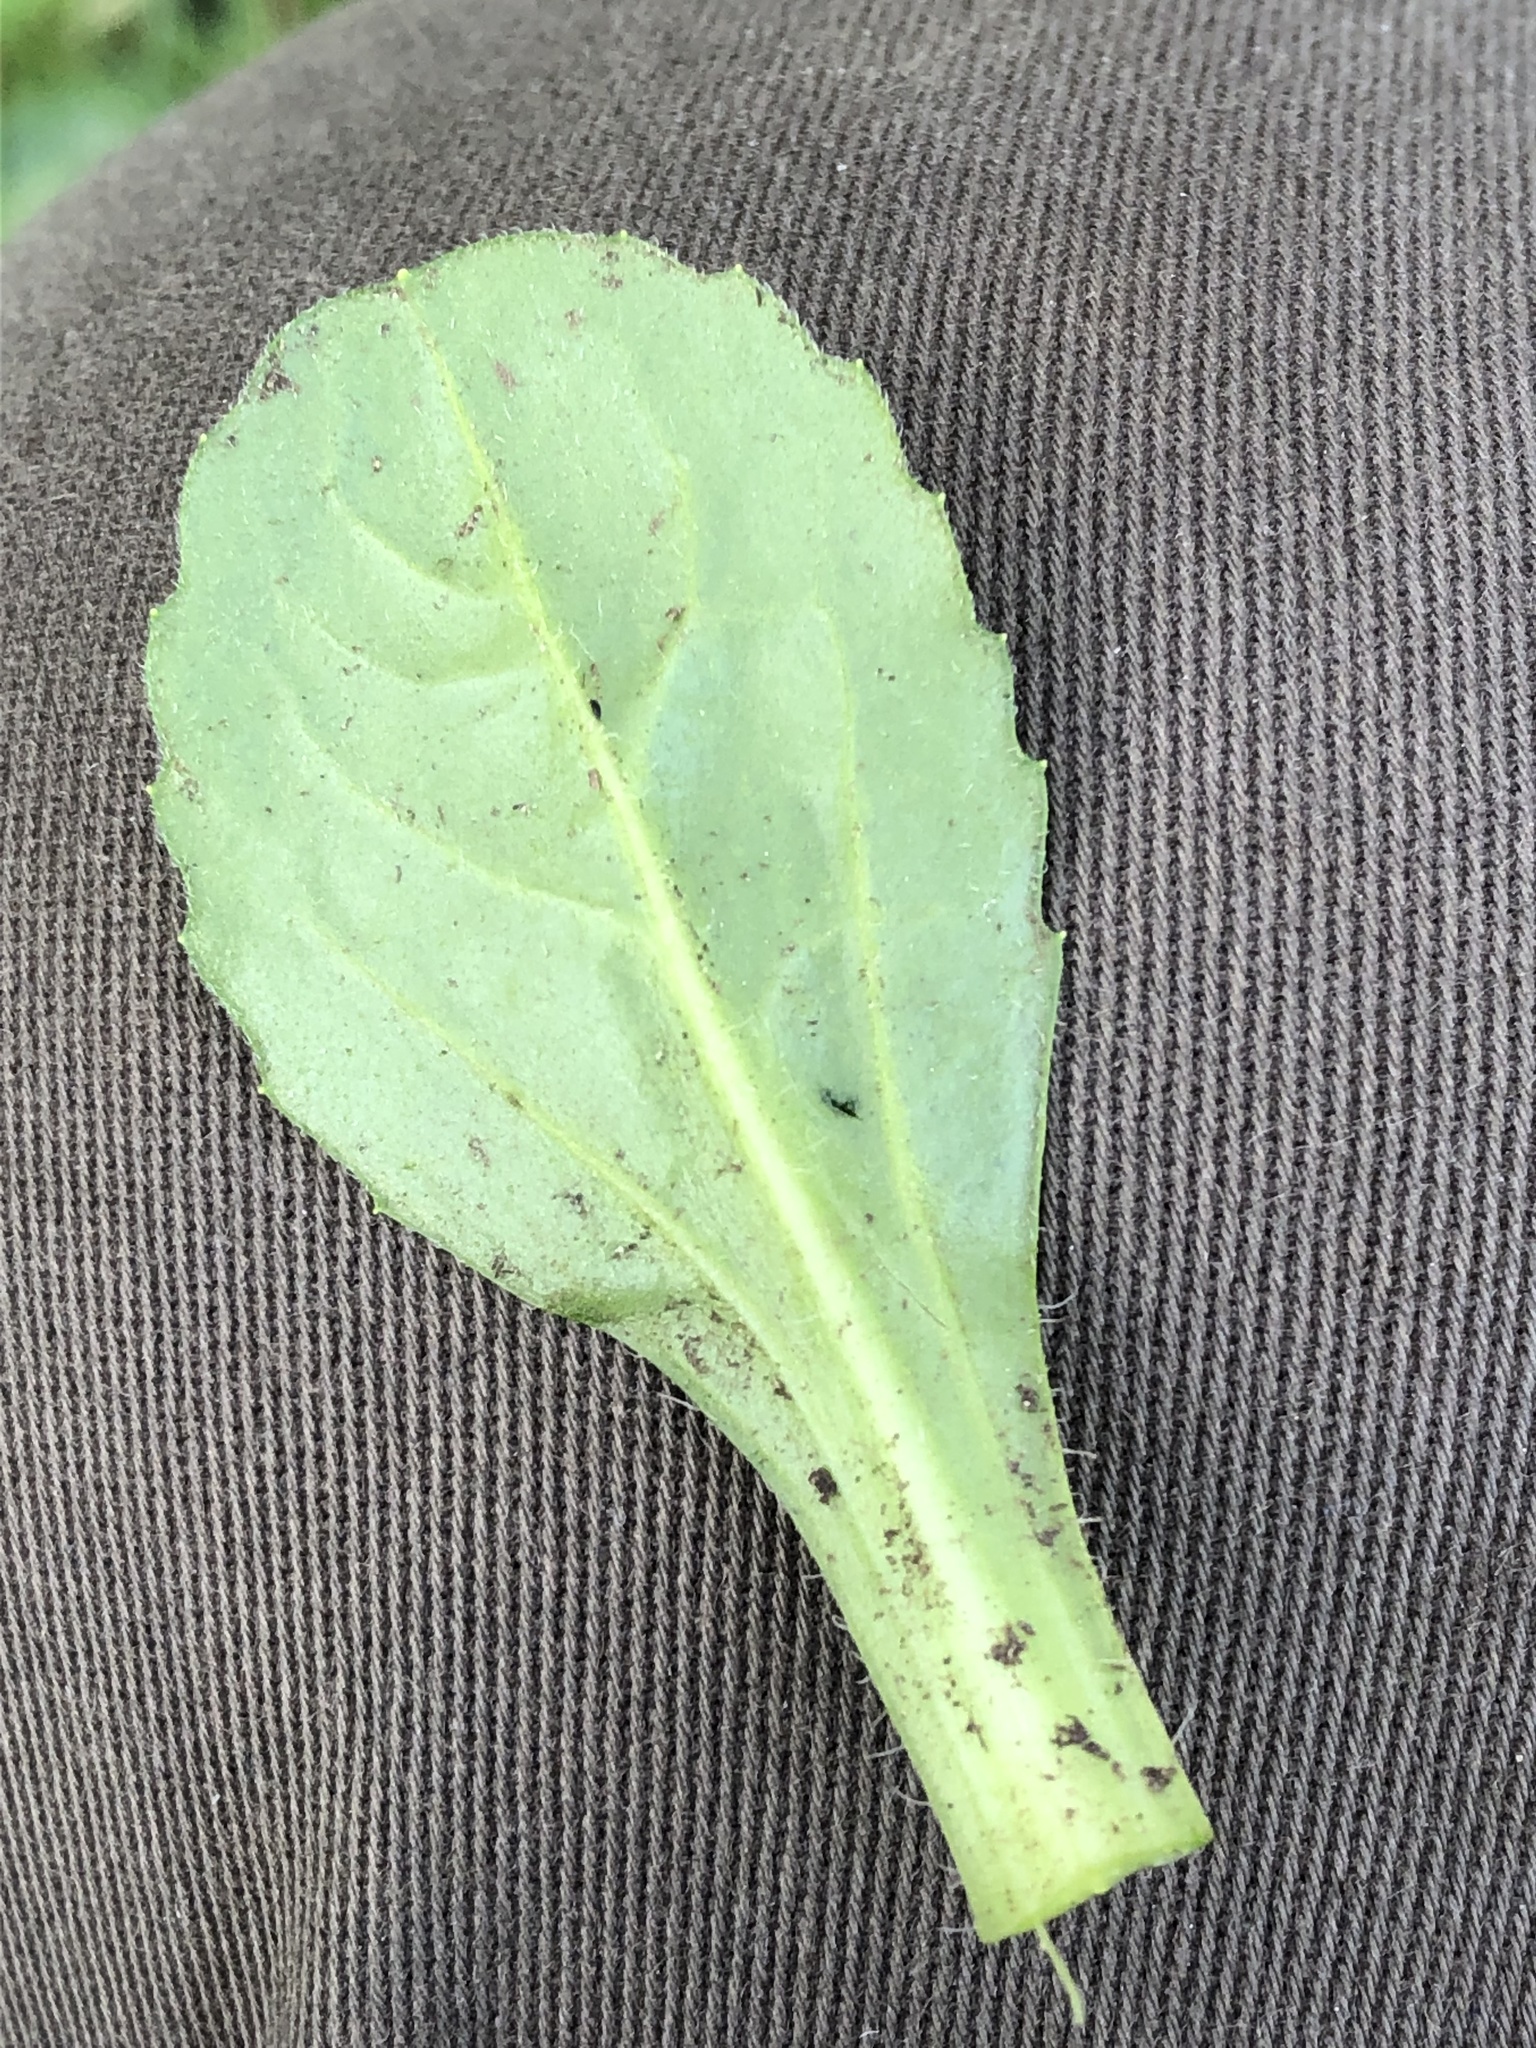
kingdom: Plantae
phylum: Tracheophyta
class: Magnoliopsida
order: Asterales
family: Asteraceae
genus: Bellis
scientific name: Bellis perennis
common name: Lawndaisy
